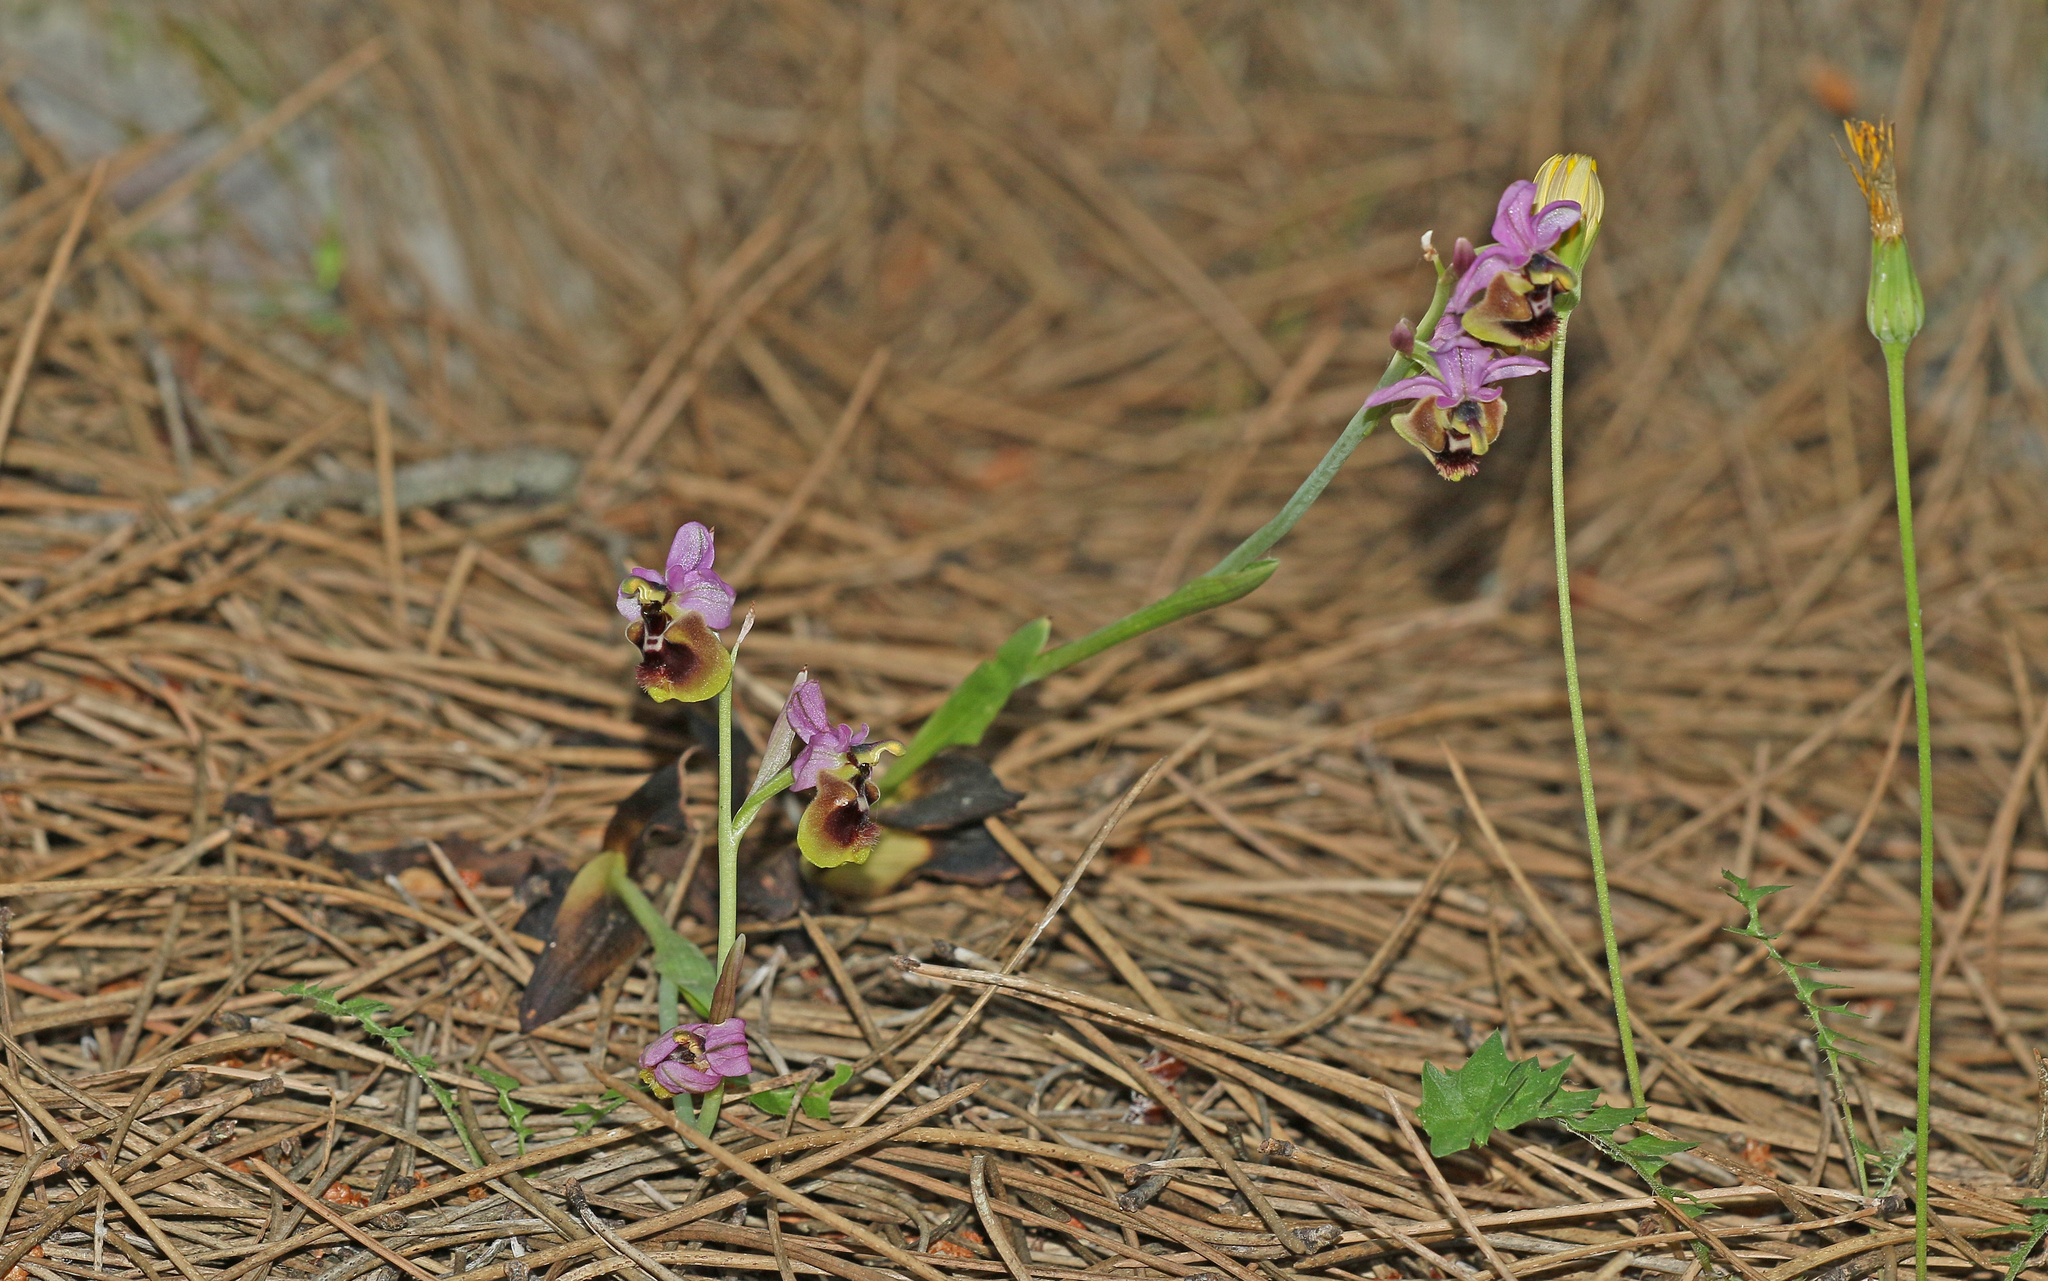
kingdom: Plantae
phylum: Tracheophyta
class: Liliopsida
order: Asparagales
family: Orchidaceae
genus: Ophrys
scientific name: Ophrys tenthredinifera
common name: Sawfly orchid
